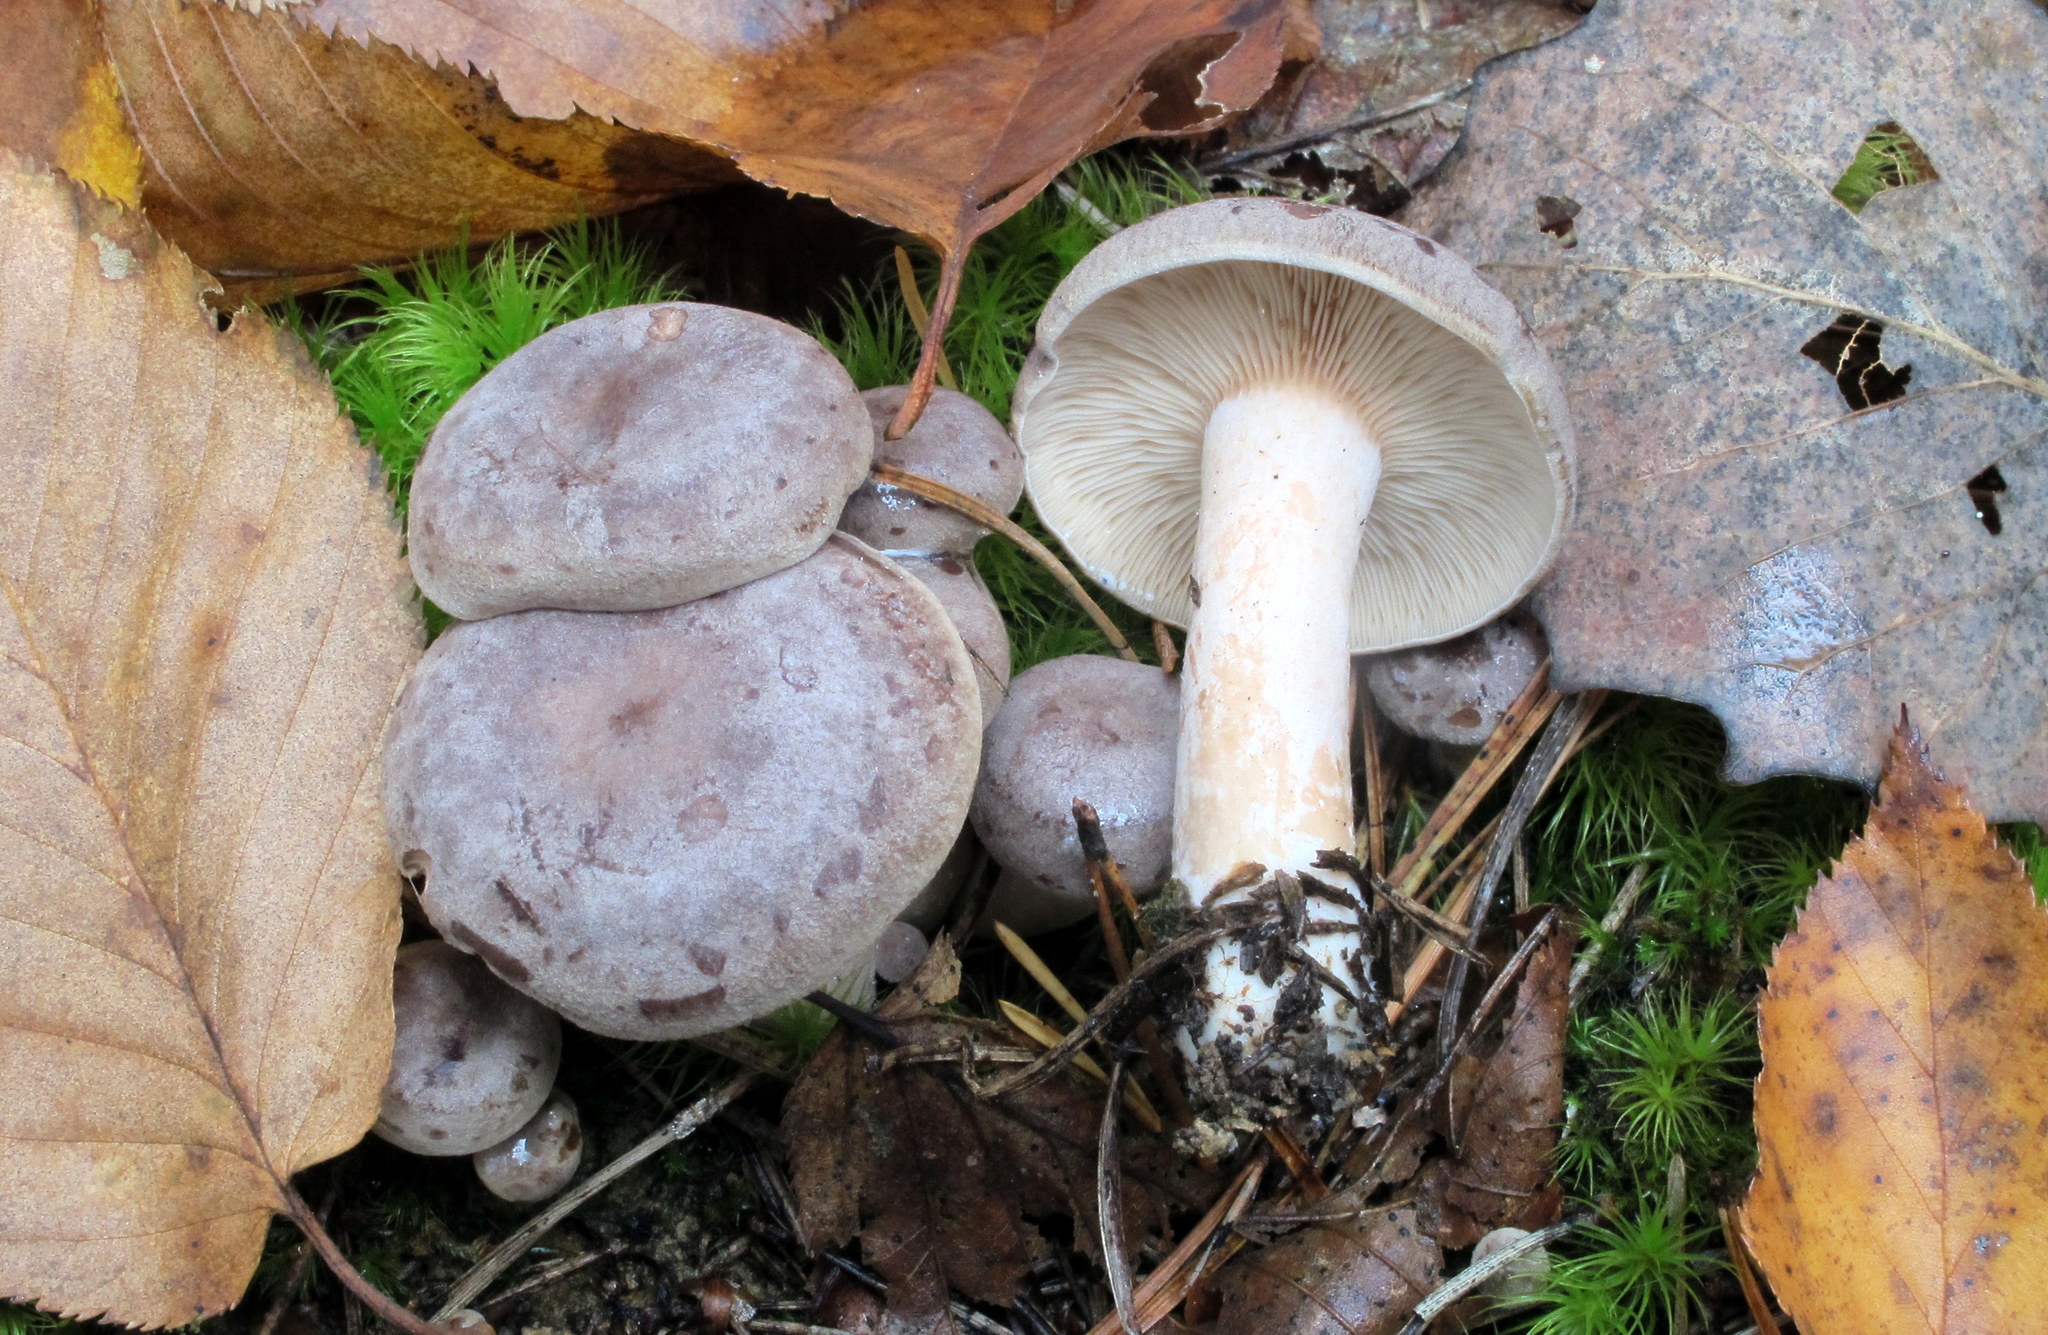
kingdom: Fungi
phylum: Basidiomycota
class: Agaricomycetes
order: Russulales
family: Russulaceae
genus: Lactarius
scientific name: Lactarius mammosus
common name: Pap milkcap
